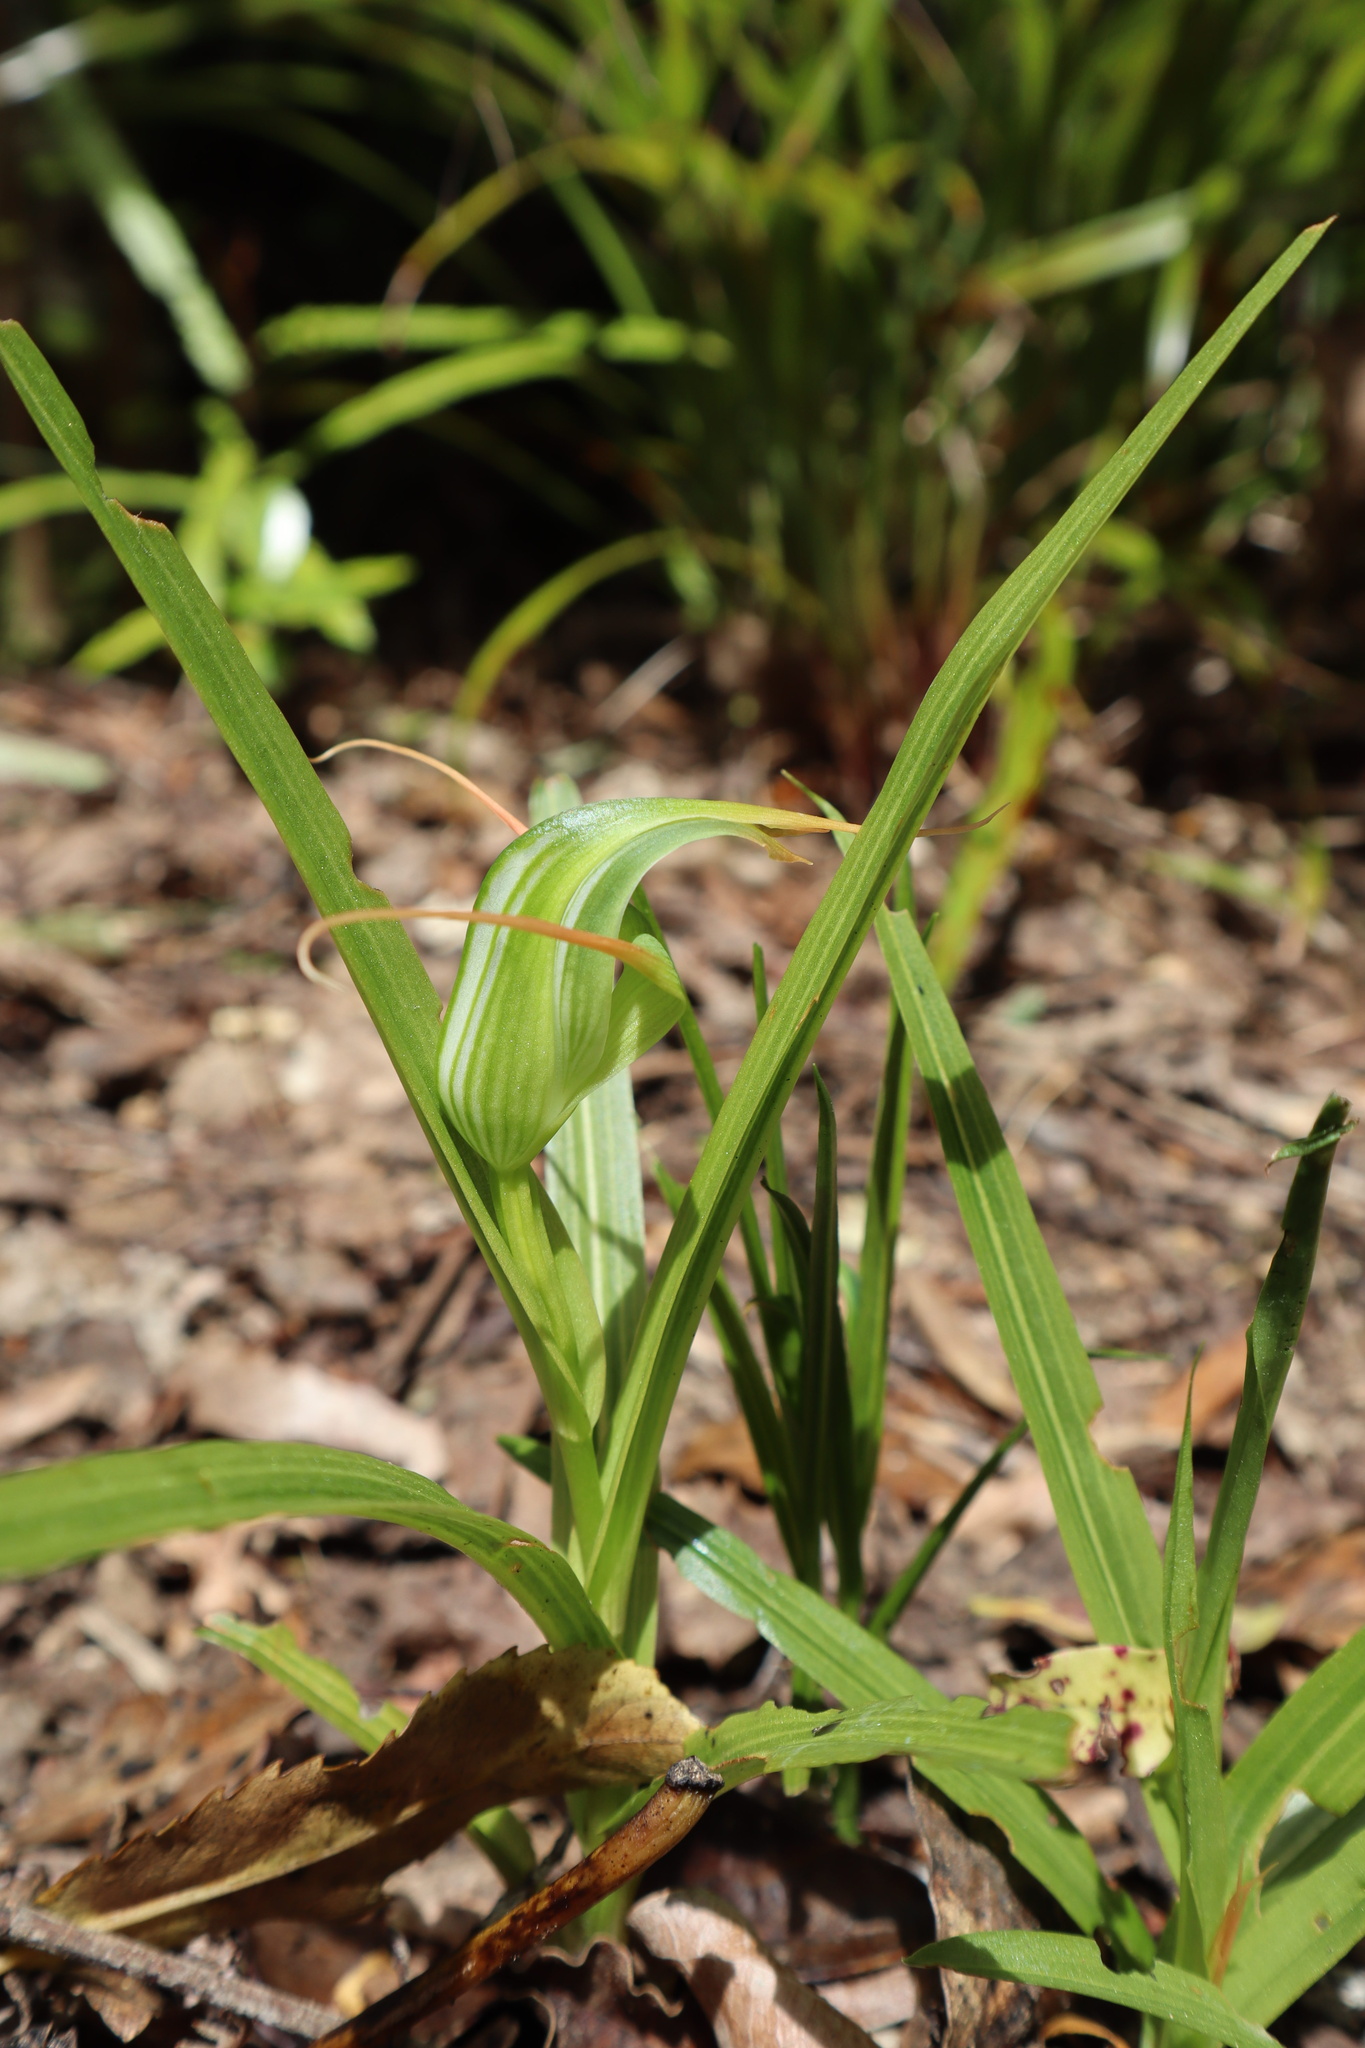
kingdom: Plantae
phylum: Tracheophyta
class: Liliopsida
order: Asparagales
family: Orchidaceae
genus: Pterostylis
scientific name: Pterostylis banksii
